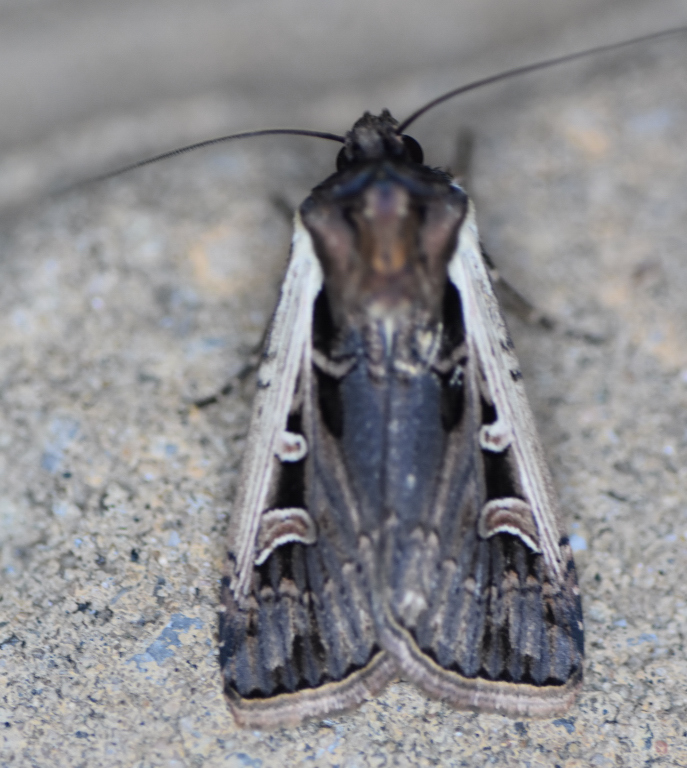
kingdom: Animalia
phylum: Arthropoda
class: Insecta
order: Lepidoptera
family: Noctuidae
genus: Striacosta
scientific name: Striacosta albicosta
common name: Western bean cutworm moth
